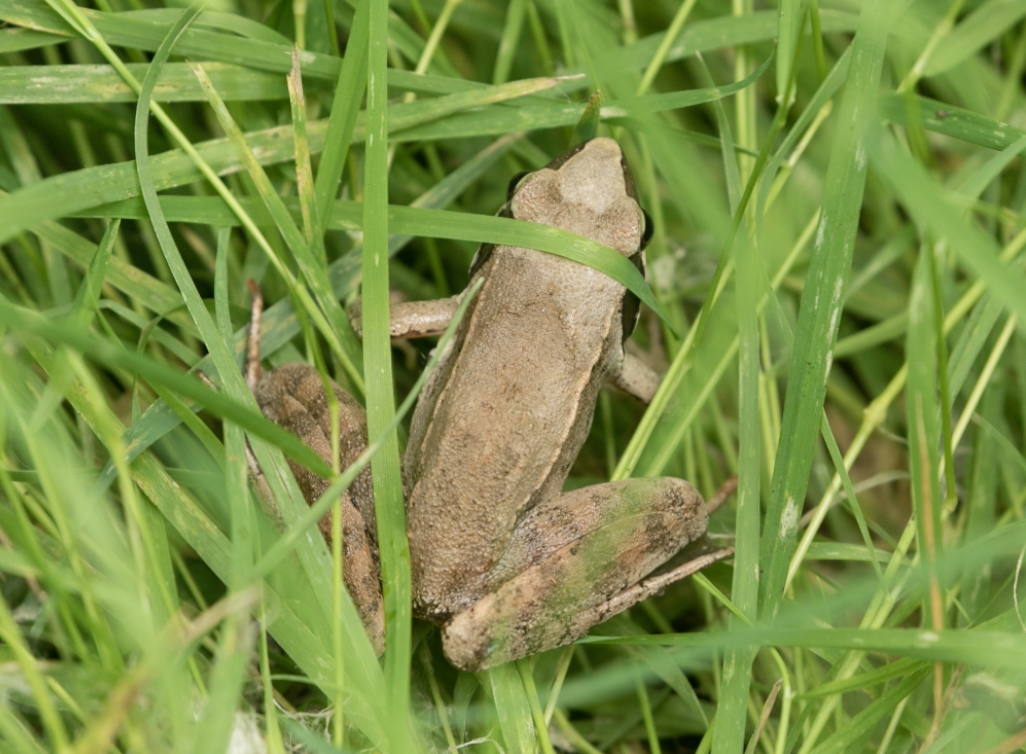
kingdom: Animalia
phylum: Chordata
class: Amphibia
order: Anura
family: Ranidae
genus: Rana
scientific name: Rana latastei
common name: Italian agile frog
